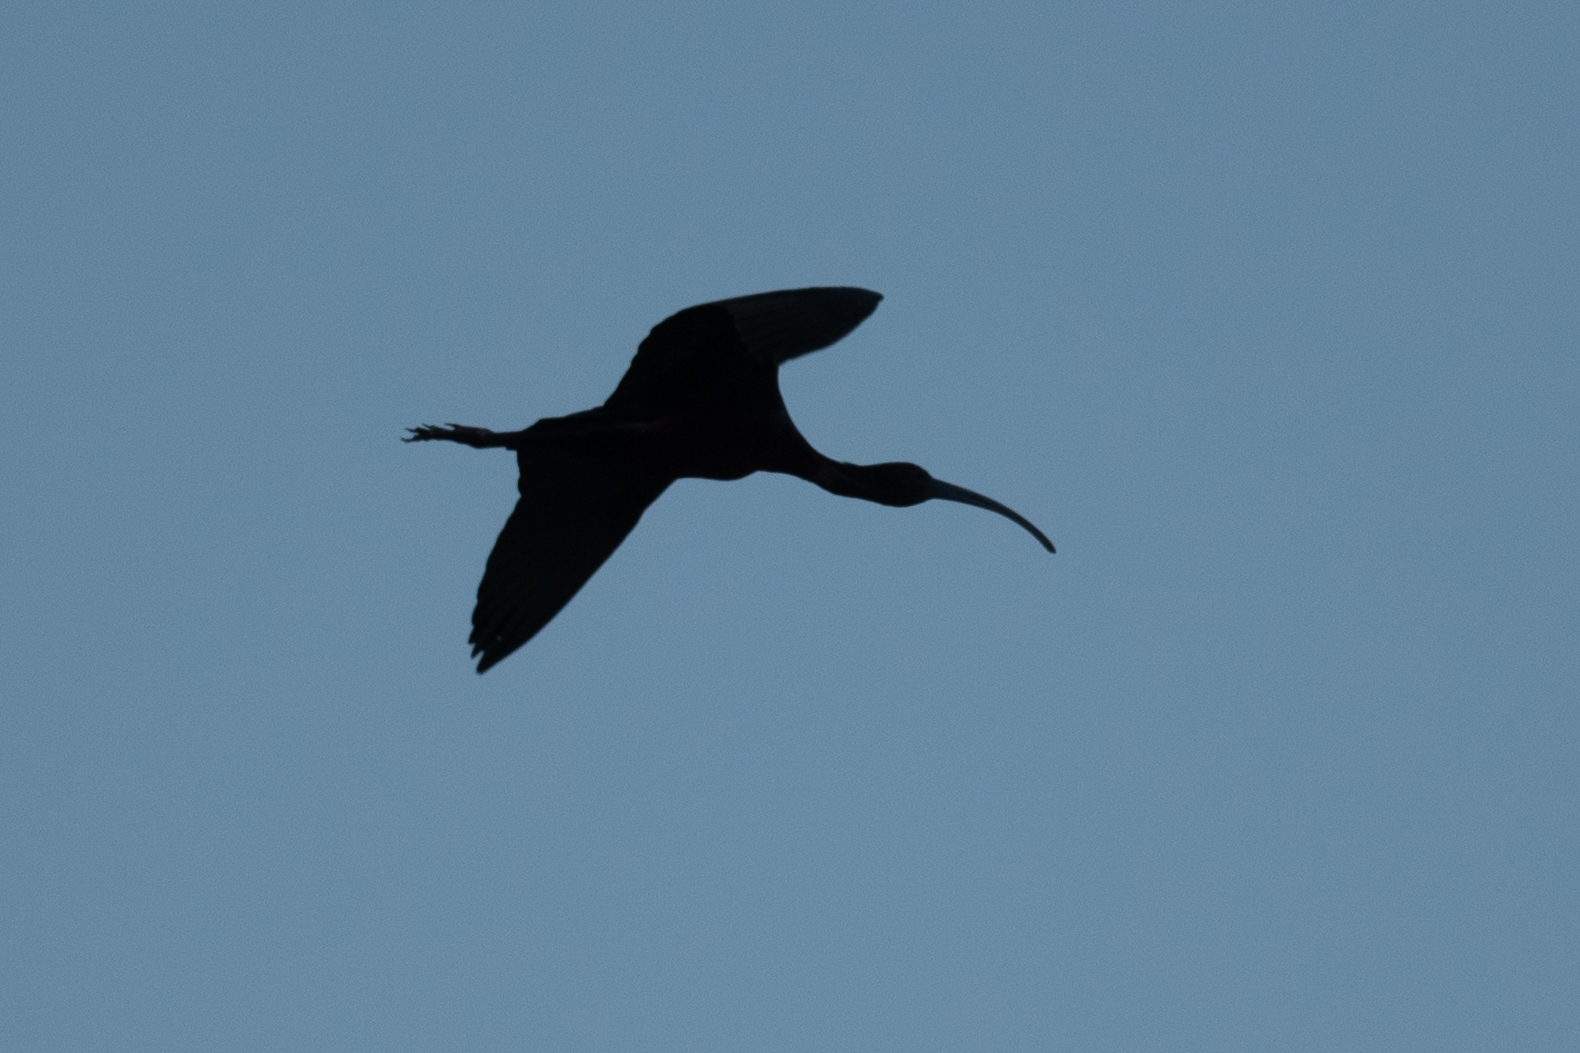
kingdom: Animalia
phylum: Chordata
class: Aves
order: Pelecaniformes
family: Threskiornithidae
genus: Plegadis
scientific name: Plegadis chihi
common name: White-faced ibis
